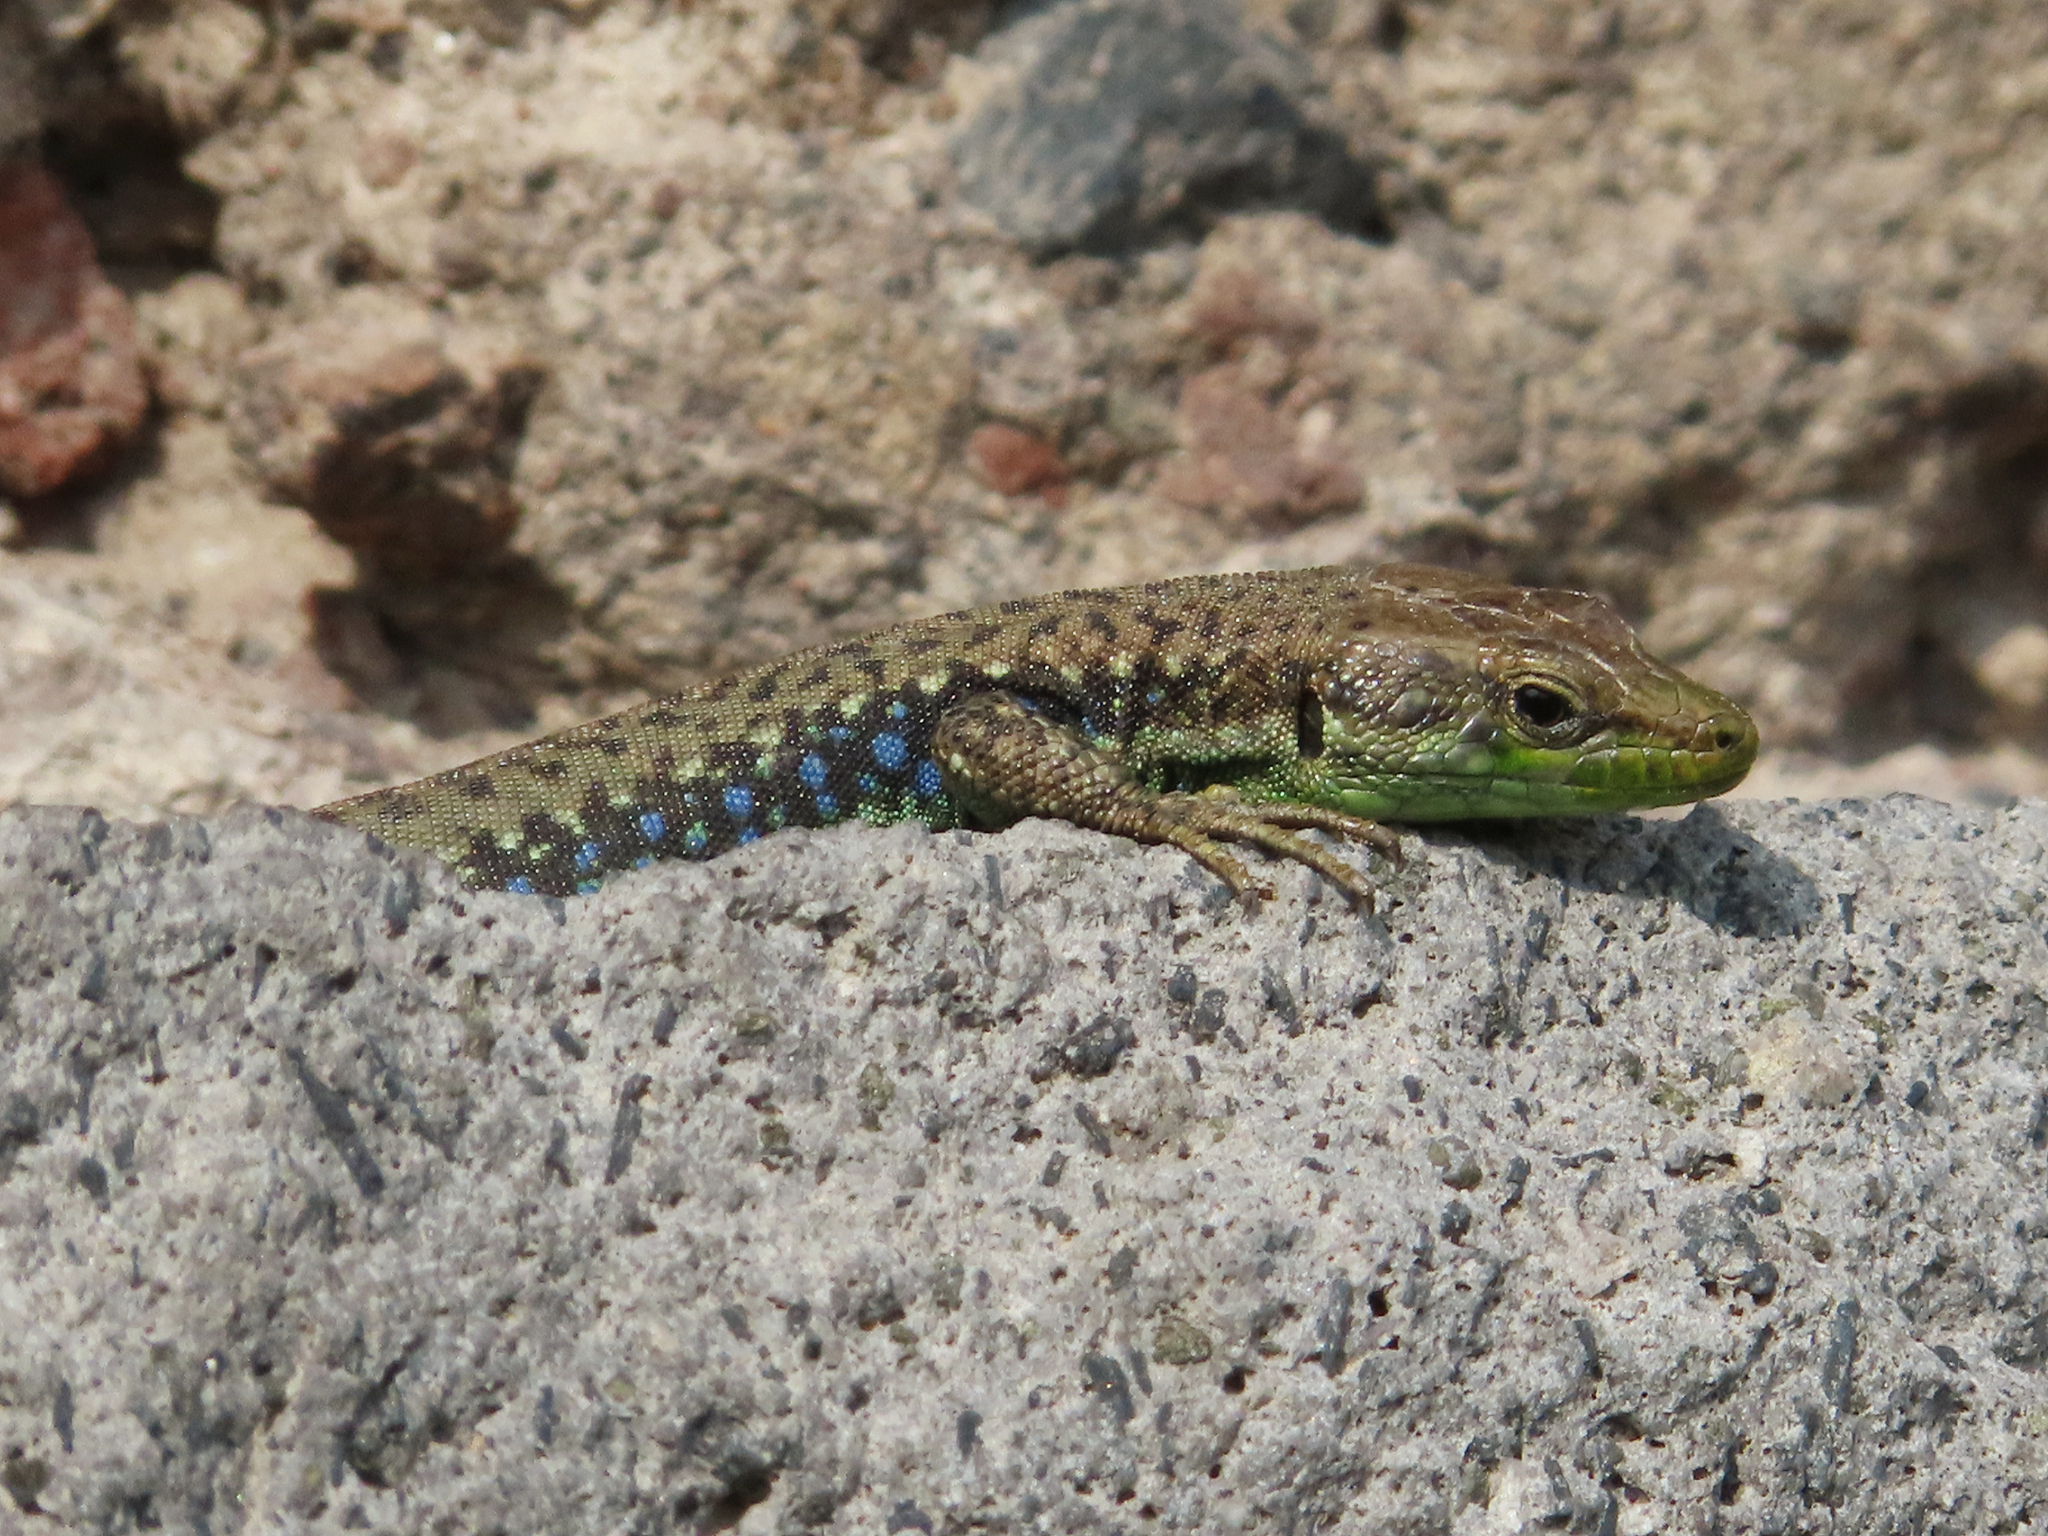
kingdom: Animalia
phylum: Chordata
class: Squamata
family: Lacertidae
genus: Darevskia
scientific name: Darevskia raddei
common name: Radde's lizard
